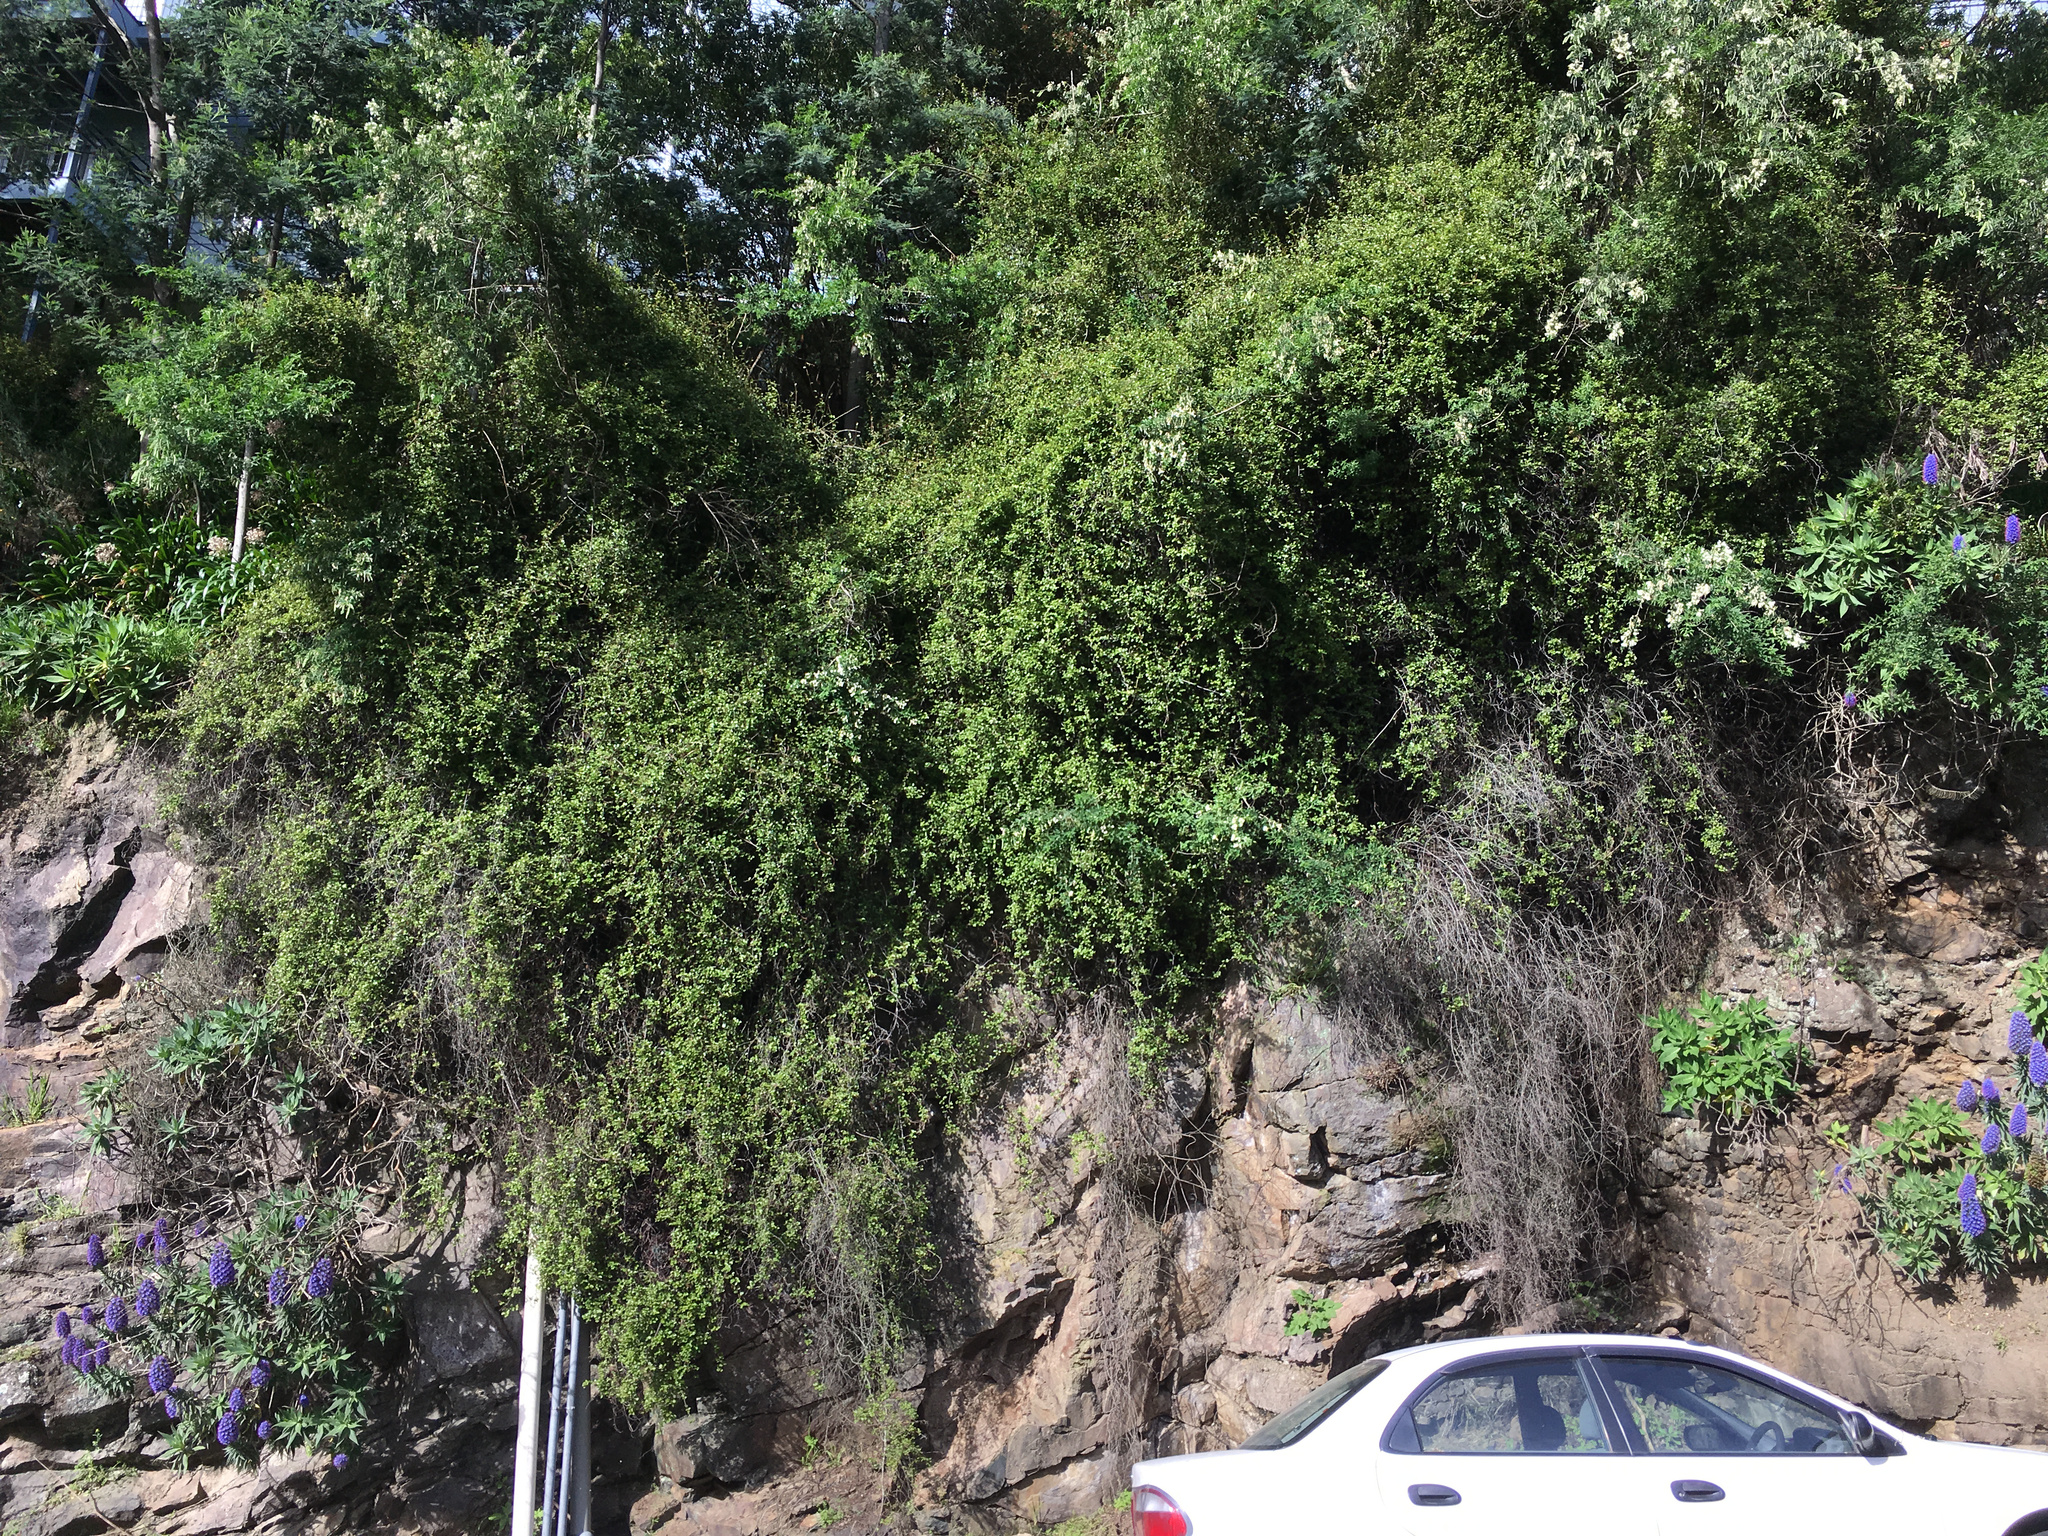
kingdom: Plantae
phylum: Tracheophyta
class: Magnoliopsida
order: Caryophyllales
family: Polygonaceae
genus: Muehlenbeckia
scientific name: Muehlenbeckia complexa
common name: Wireplant
